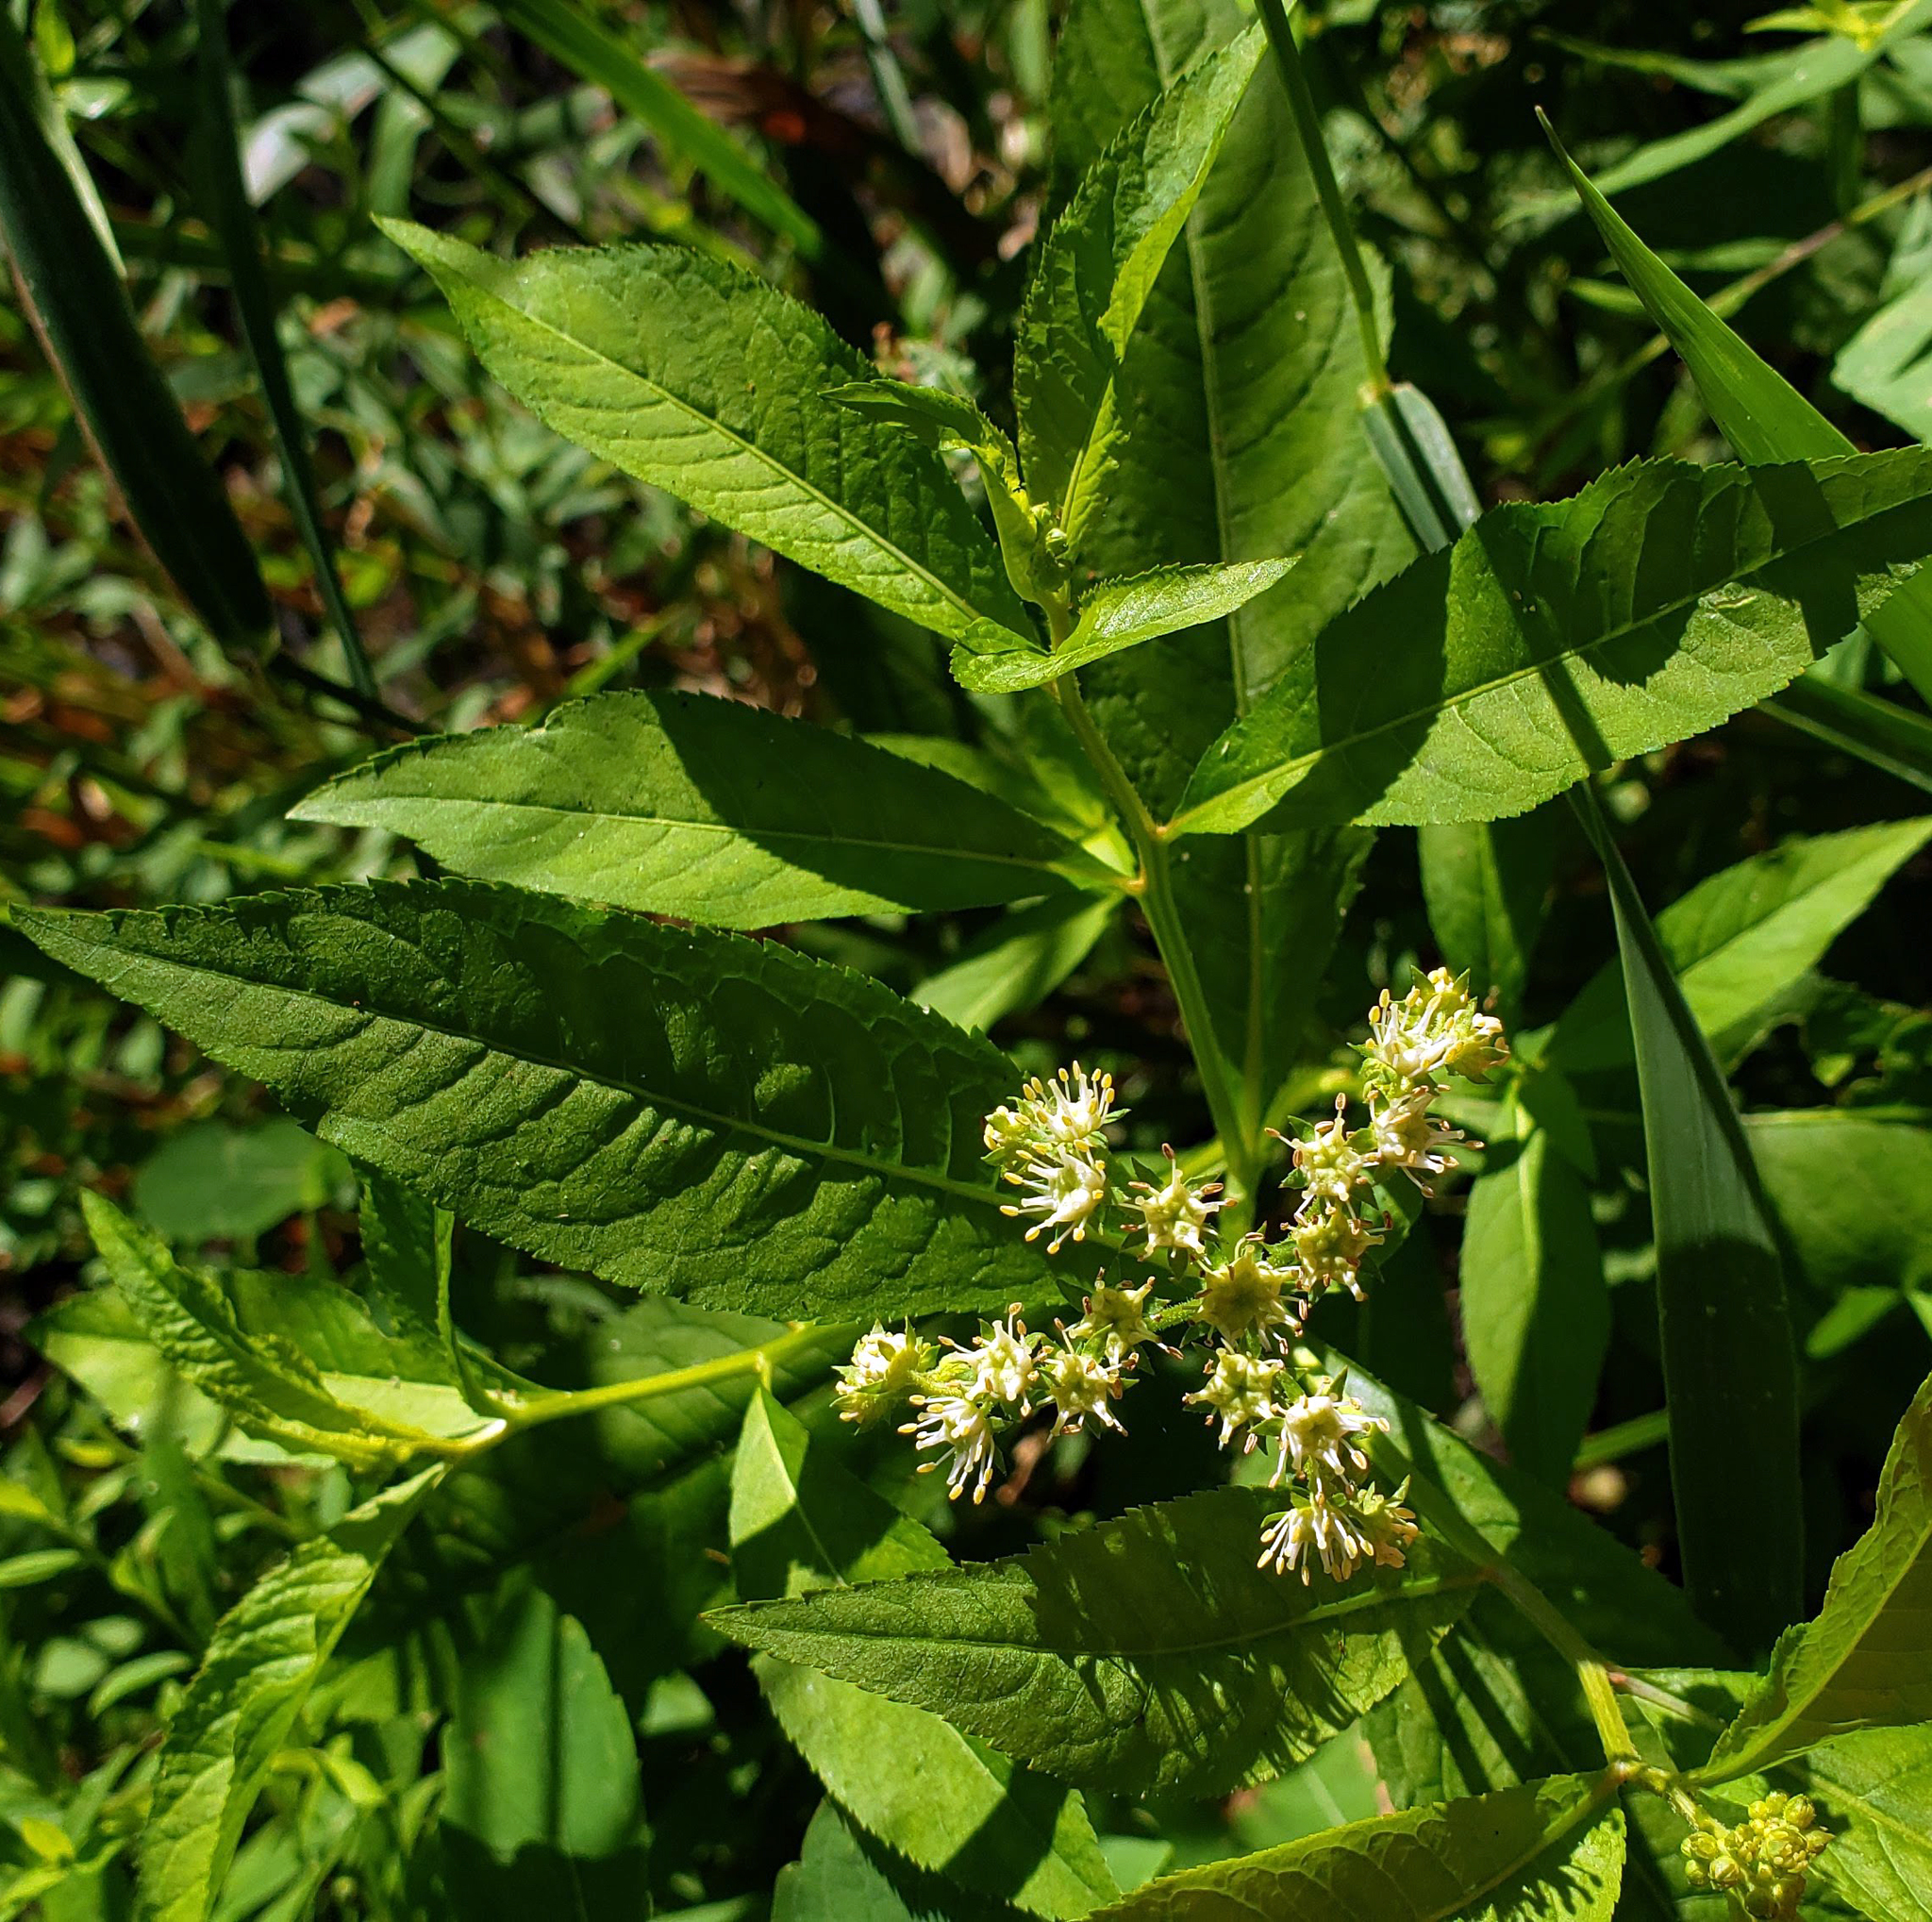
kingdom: Plantae
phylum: Tracheophyta
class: Magnoliopsida
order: Saxifragales
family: Penthoraceae
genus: Penthorum
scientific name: Penthorum sedoides
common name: Ditch stonecrop
